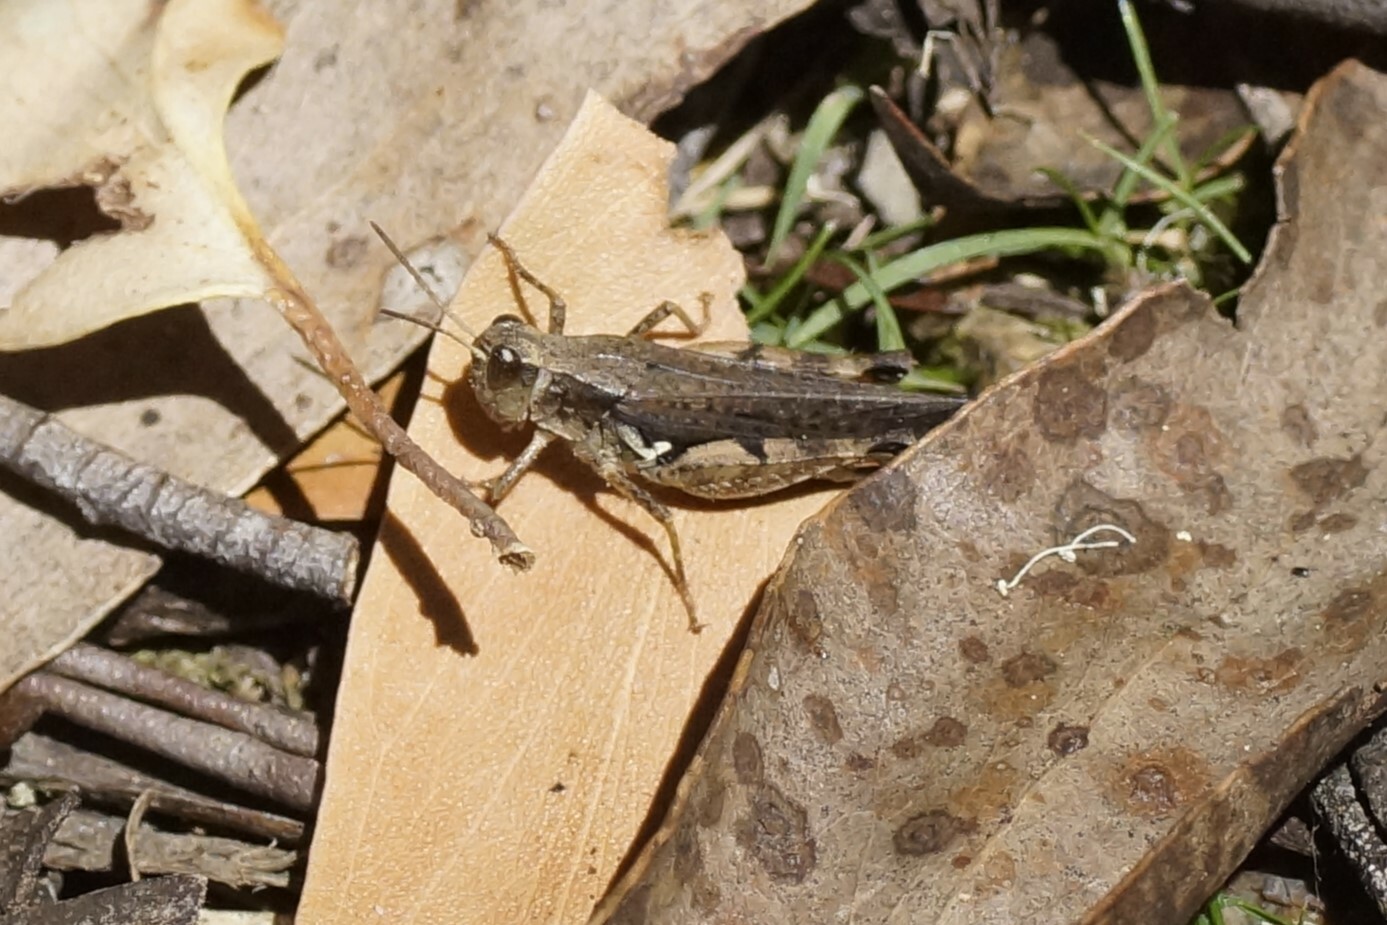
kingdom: Animalia
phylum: Arthropoda
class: Insecta
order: Orthoptera
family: Acrididae
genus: Phaulacridium
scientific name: Phaulacridium vittatum
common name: Wingless grasshopper
